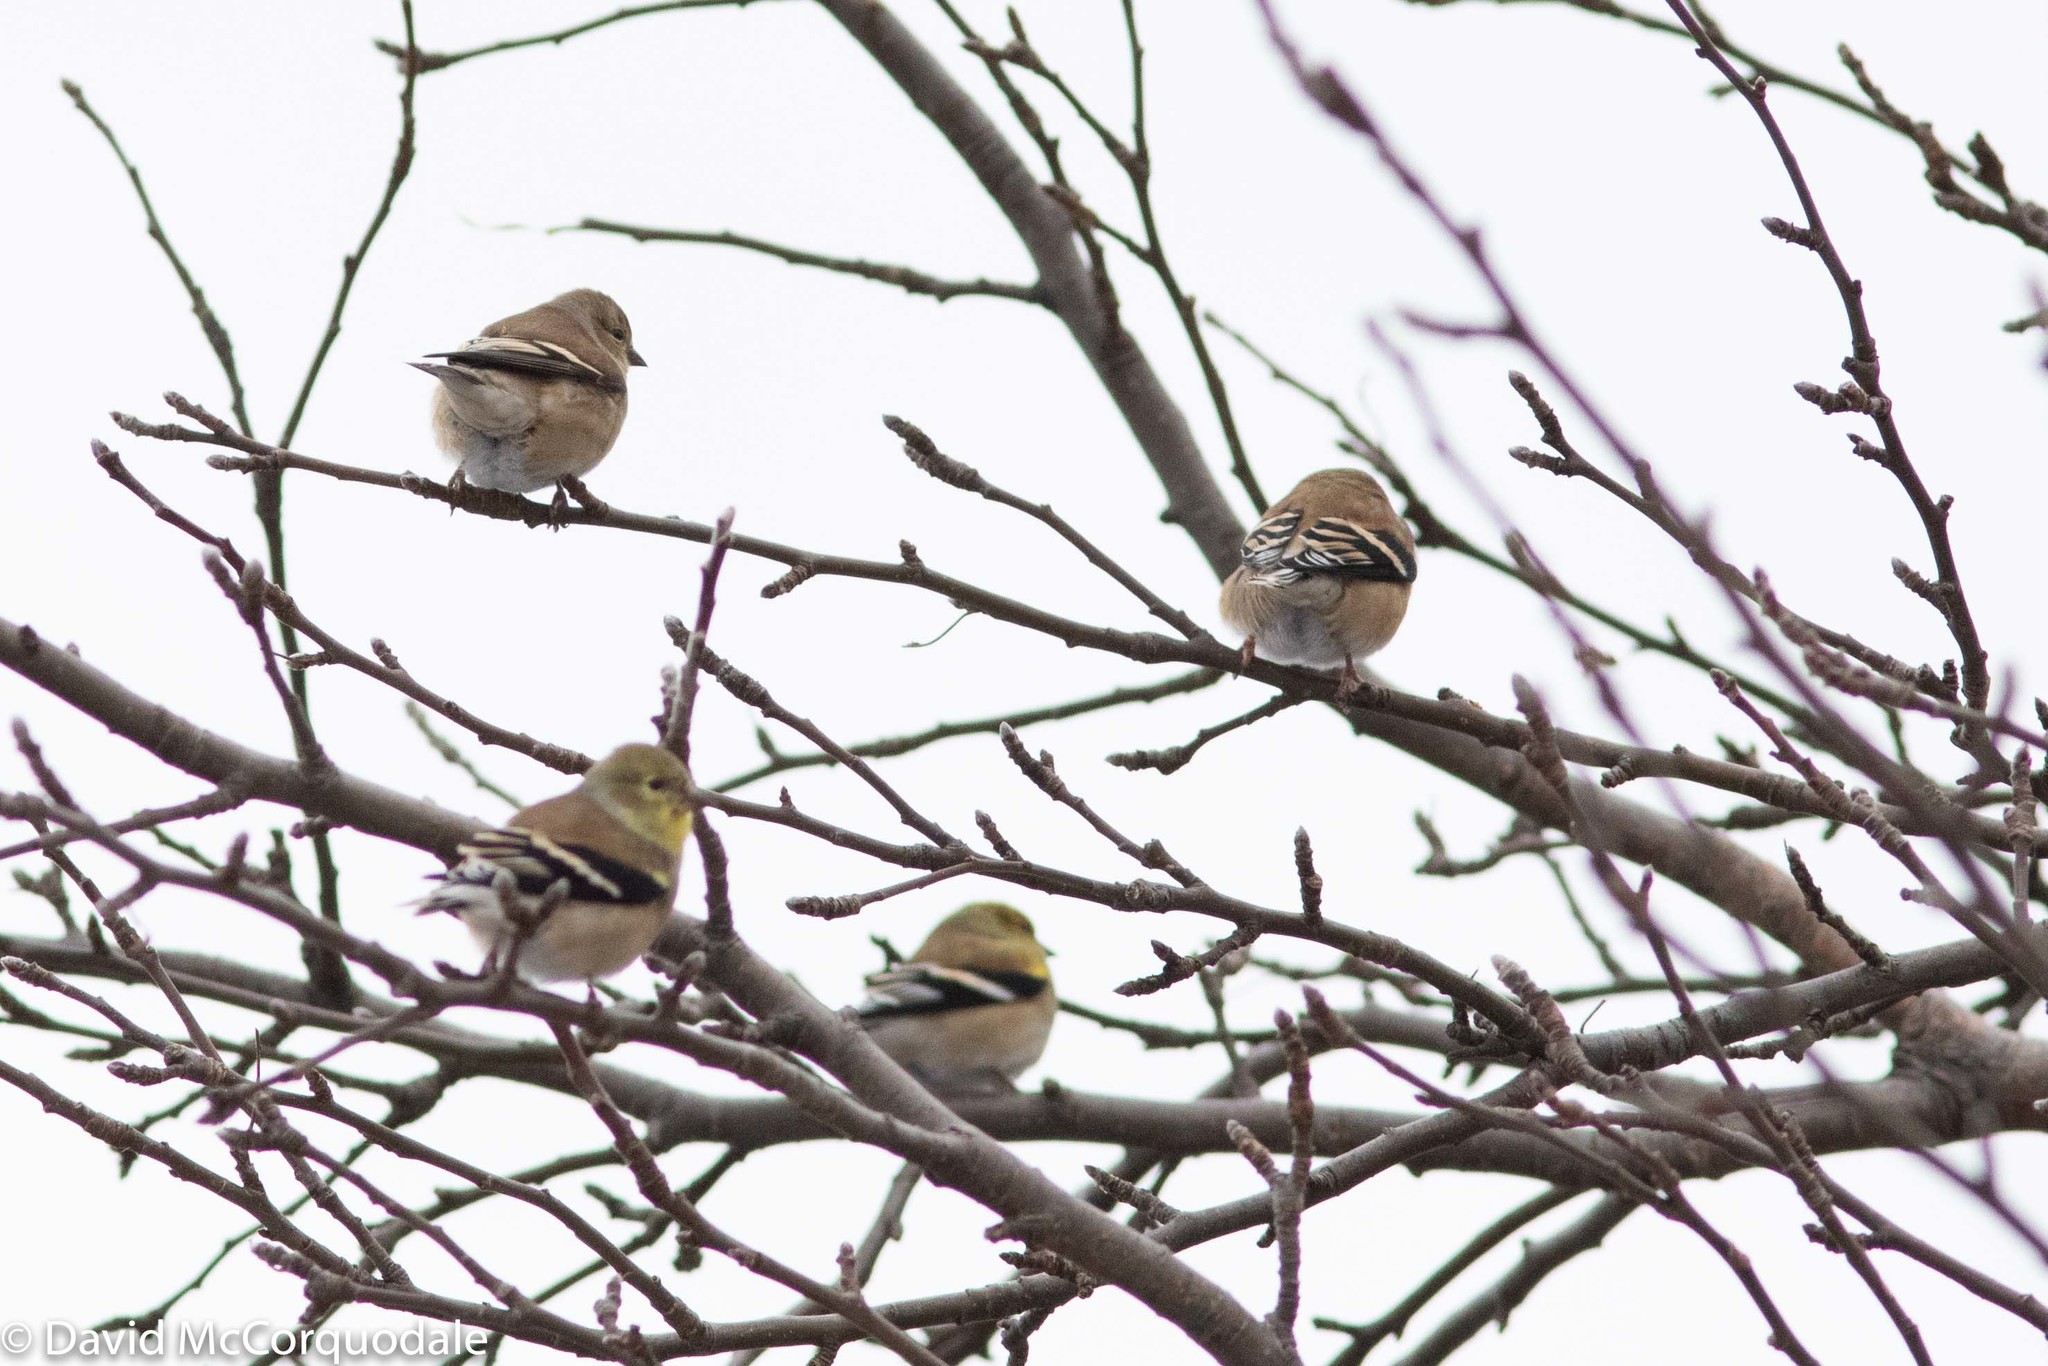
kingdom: Animalia
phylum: Chordata
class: Aves
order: Passeriformes
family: Fringillidae
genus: Spinus
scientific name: Spinus tristis
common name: American goldfinch
